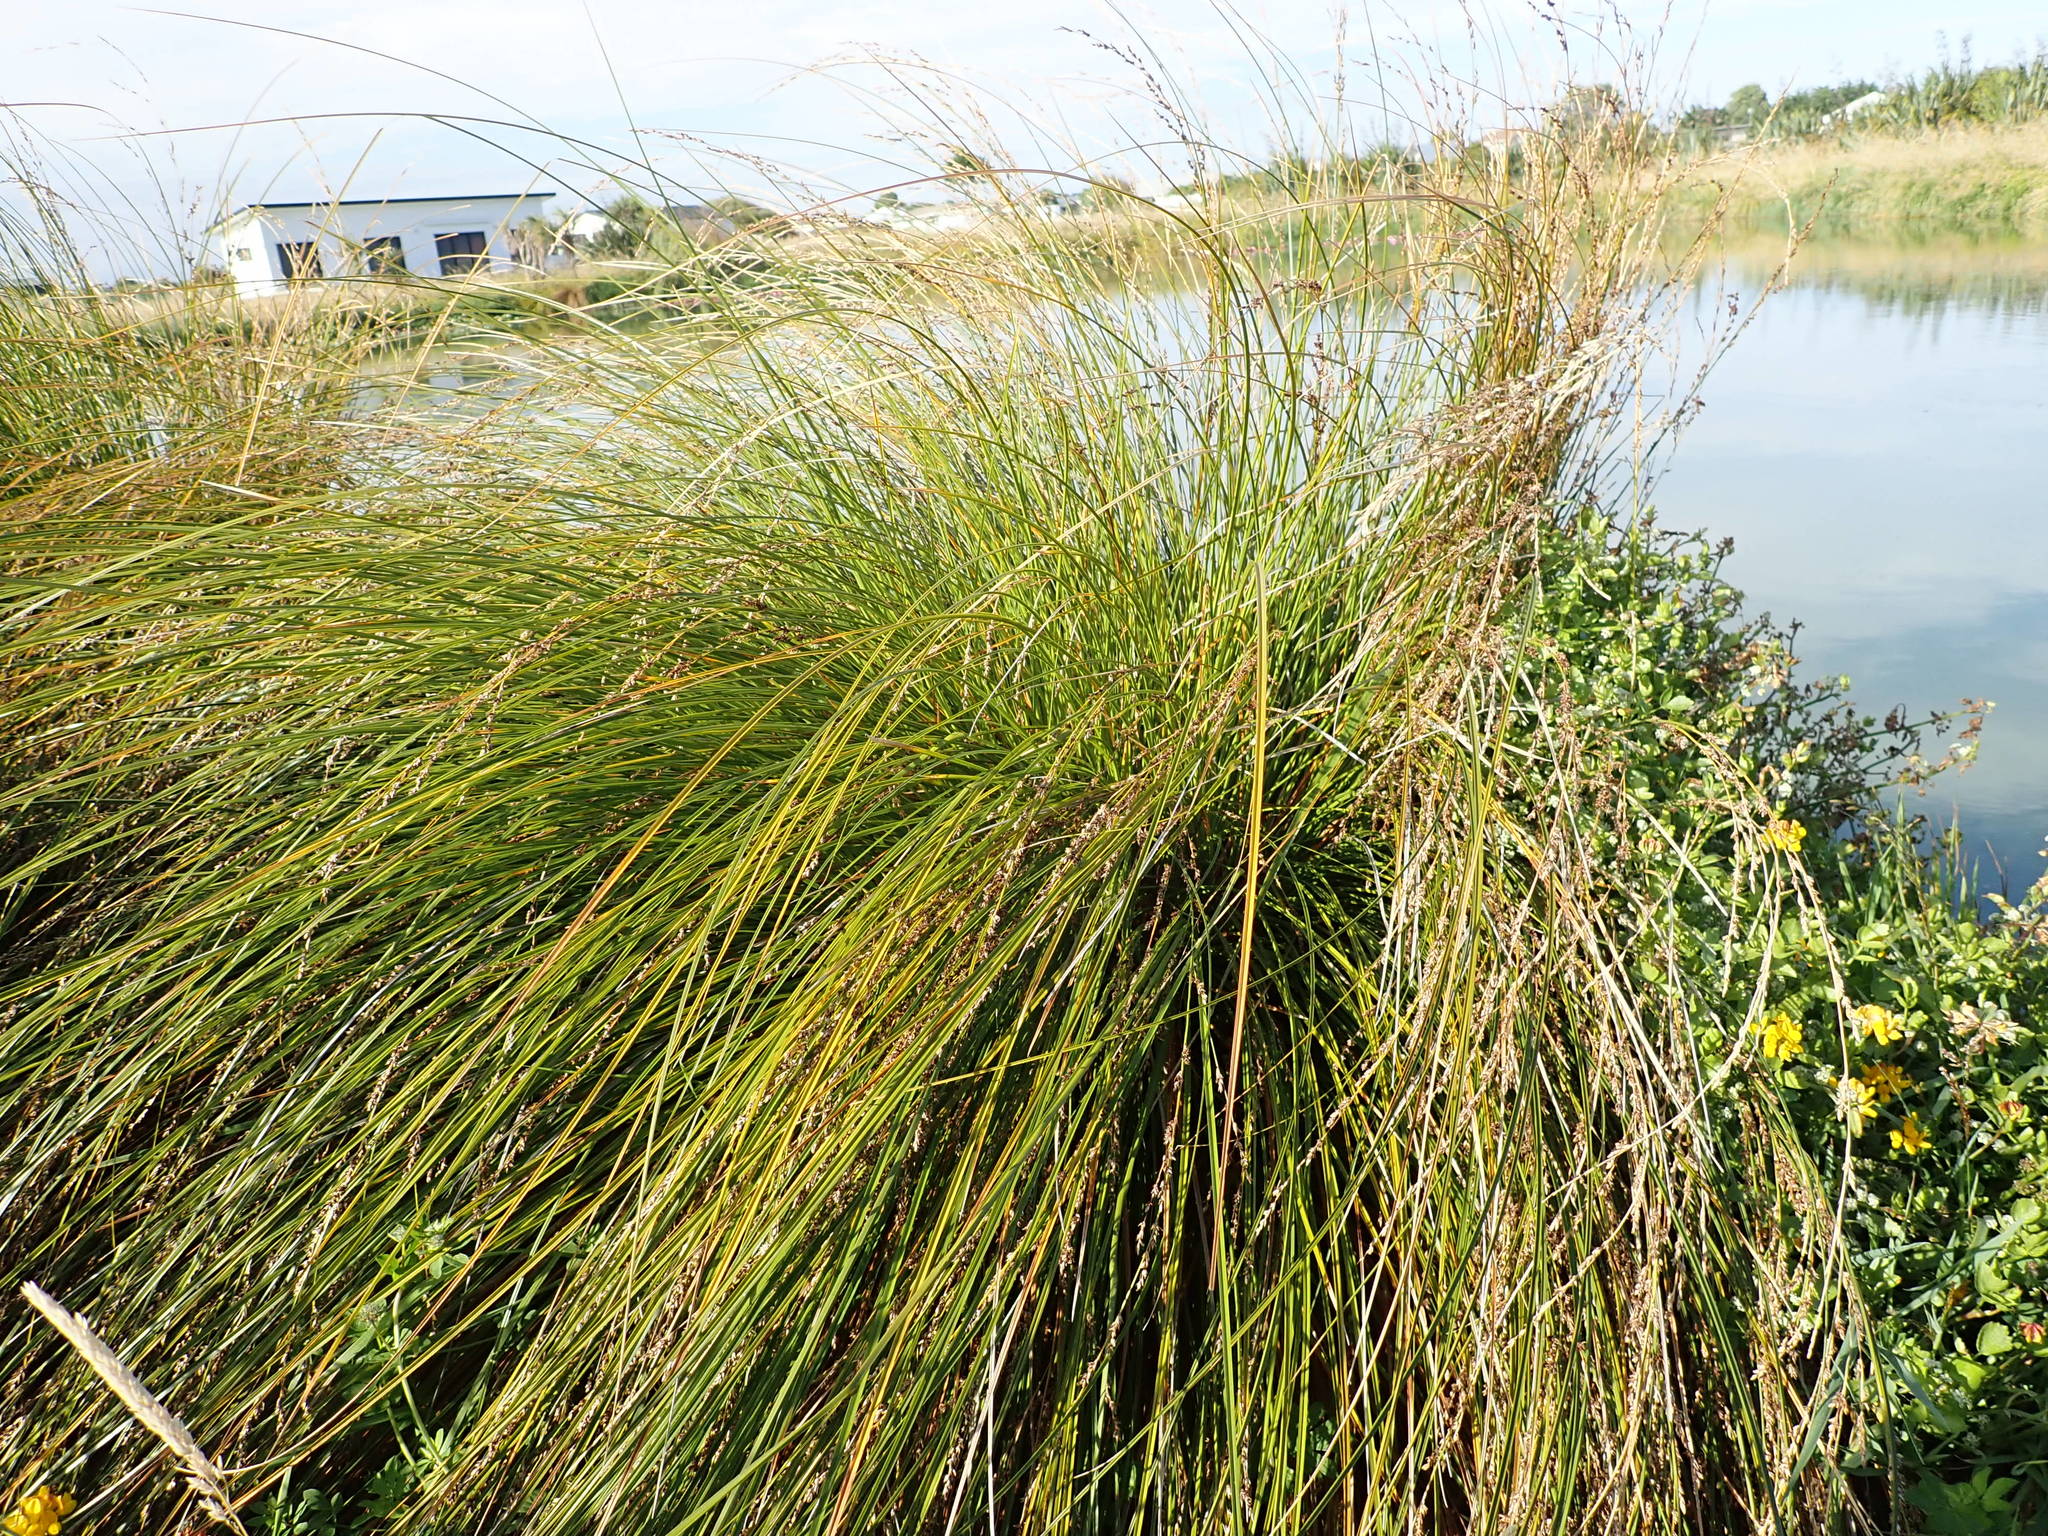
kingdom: Plantae
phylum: Tracheophyta
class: Liliopsida
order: Poales
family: Cyperaceae
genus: Carex
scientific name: Carex secta
